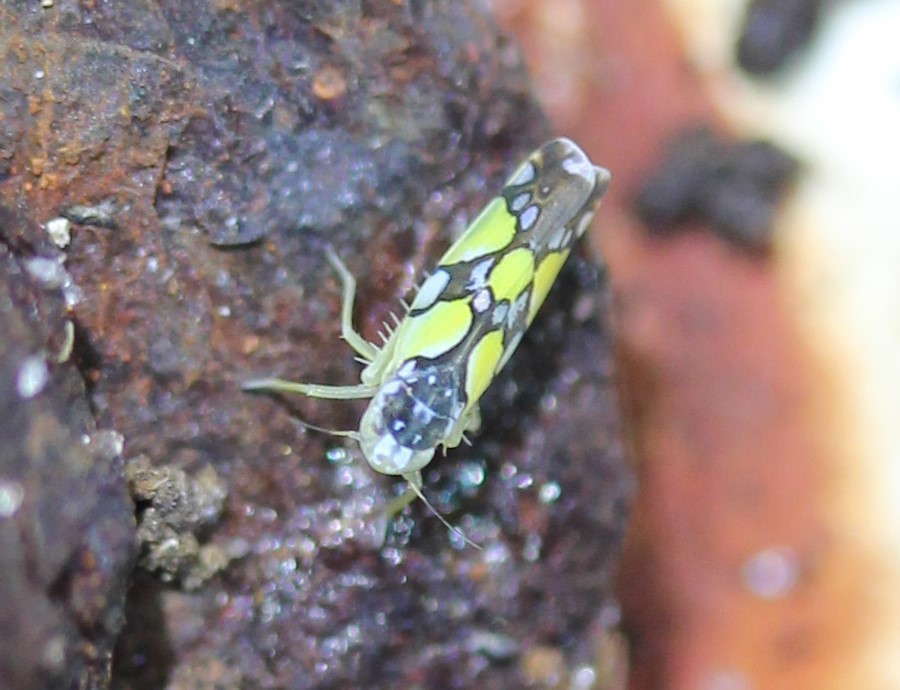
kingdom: Animalia
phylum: Arthropoda
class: Insecta
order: Hemiptera
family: Cicadellidae
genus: Protalebrella
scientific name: Protalebrella brasiliensis
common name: Brasilian leafhopper
